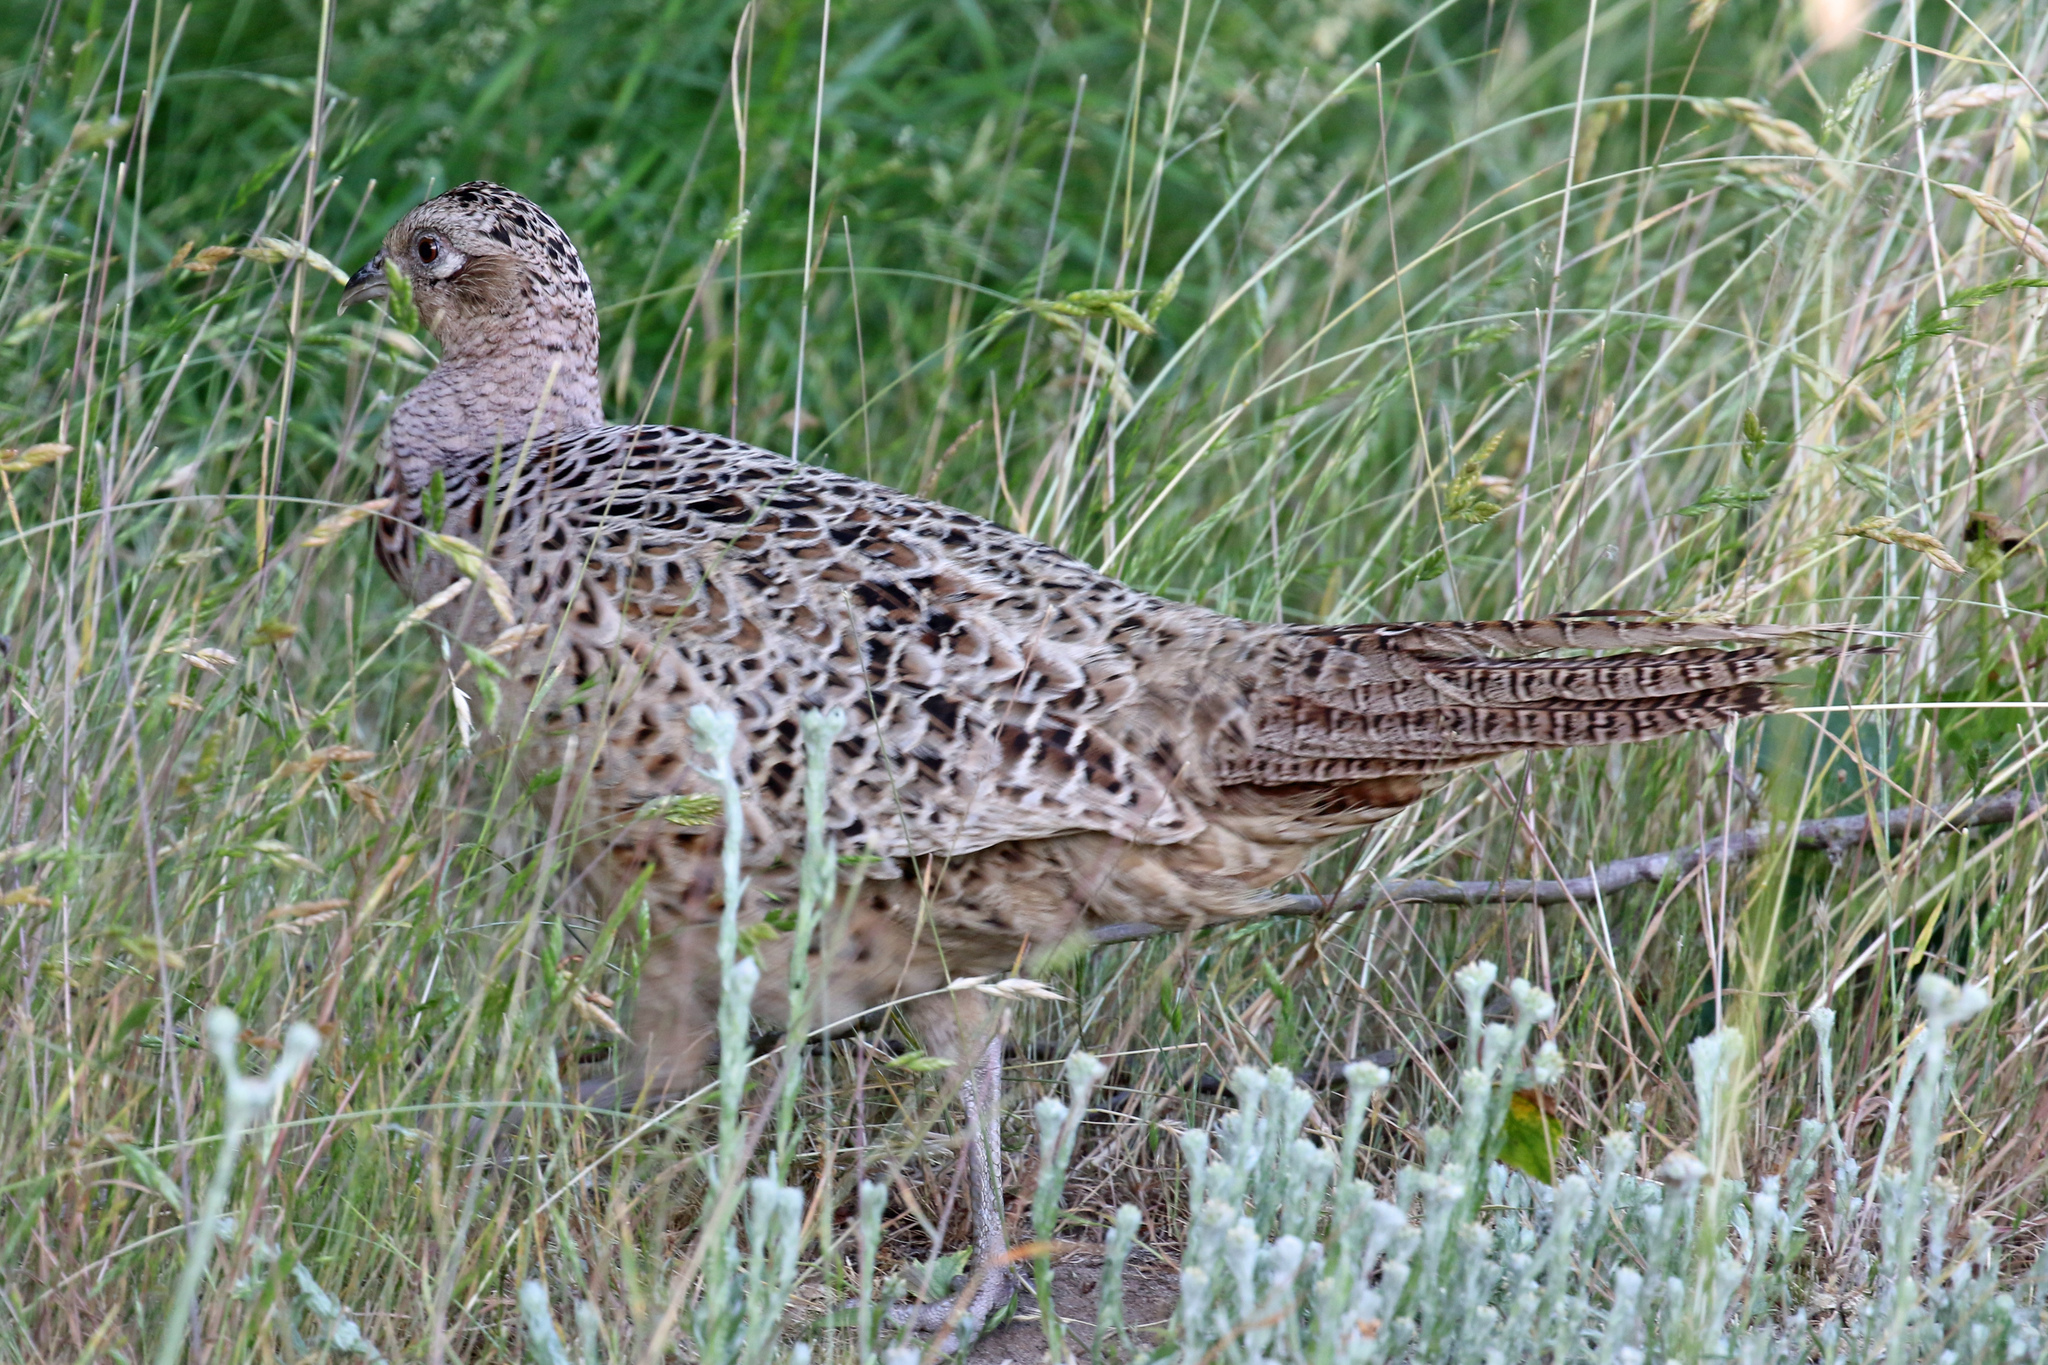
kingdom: Animalia
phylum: Chordata
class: Aves
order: Galliformes
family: Phasianidae
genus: Phasianus
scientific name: Phasianus colchicus
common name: Common pheasant
